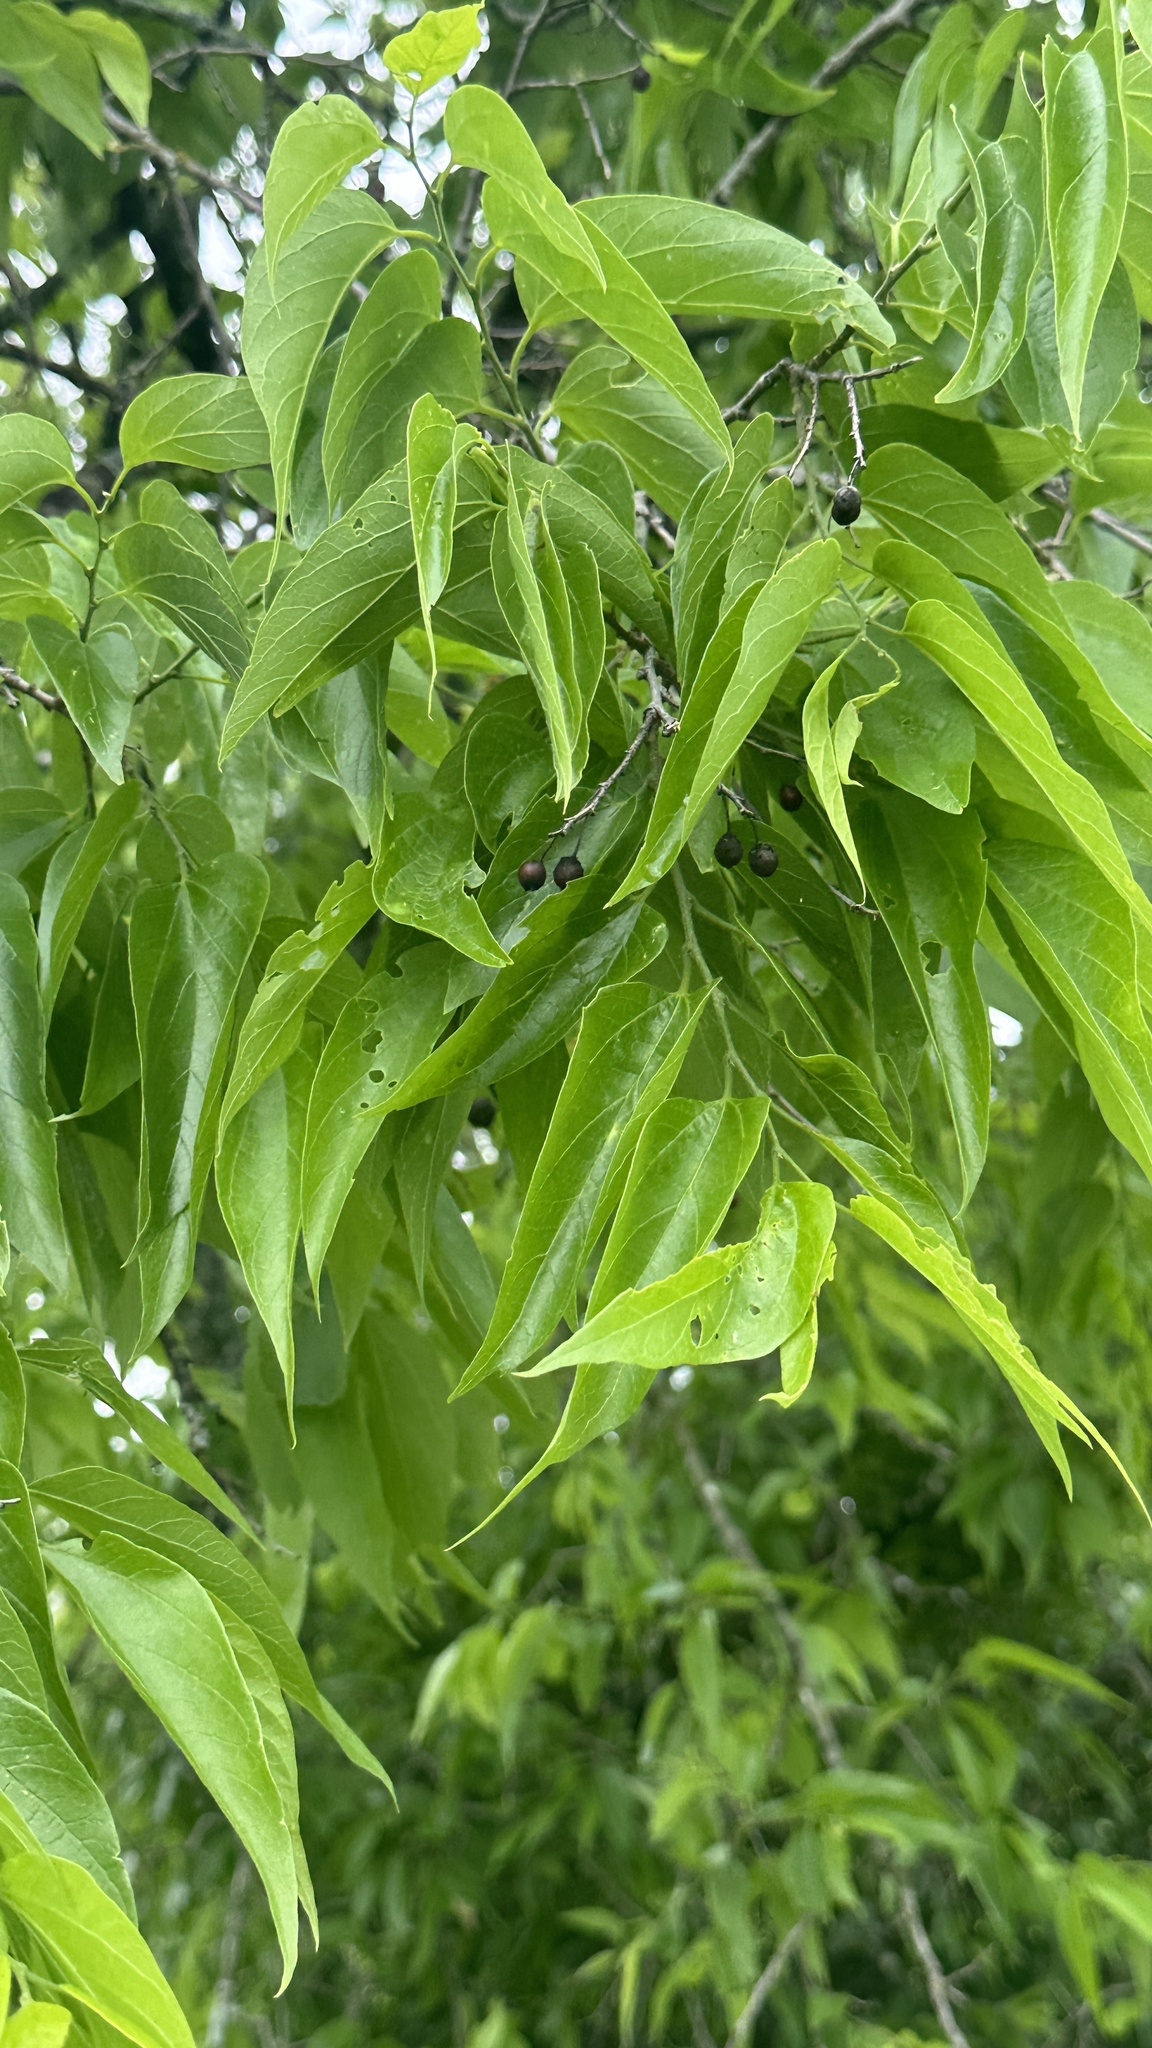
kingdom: Plantae
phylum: Tracheophyta
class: Magnoliopsida
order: Rosales
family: Cannabaceae
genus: Celtis
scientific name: Celtis laevigata
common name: Sugarberry
